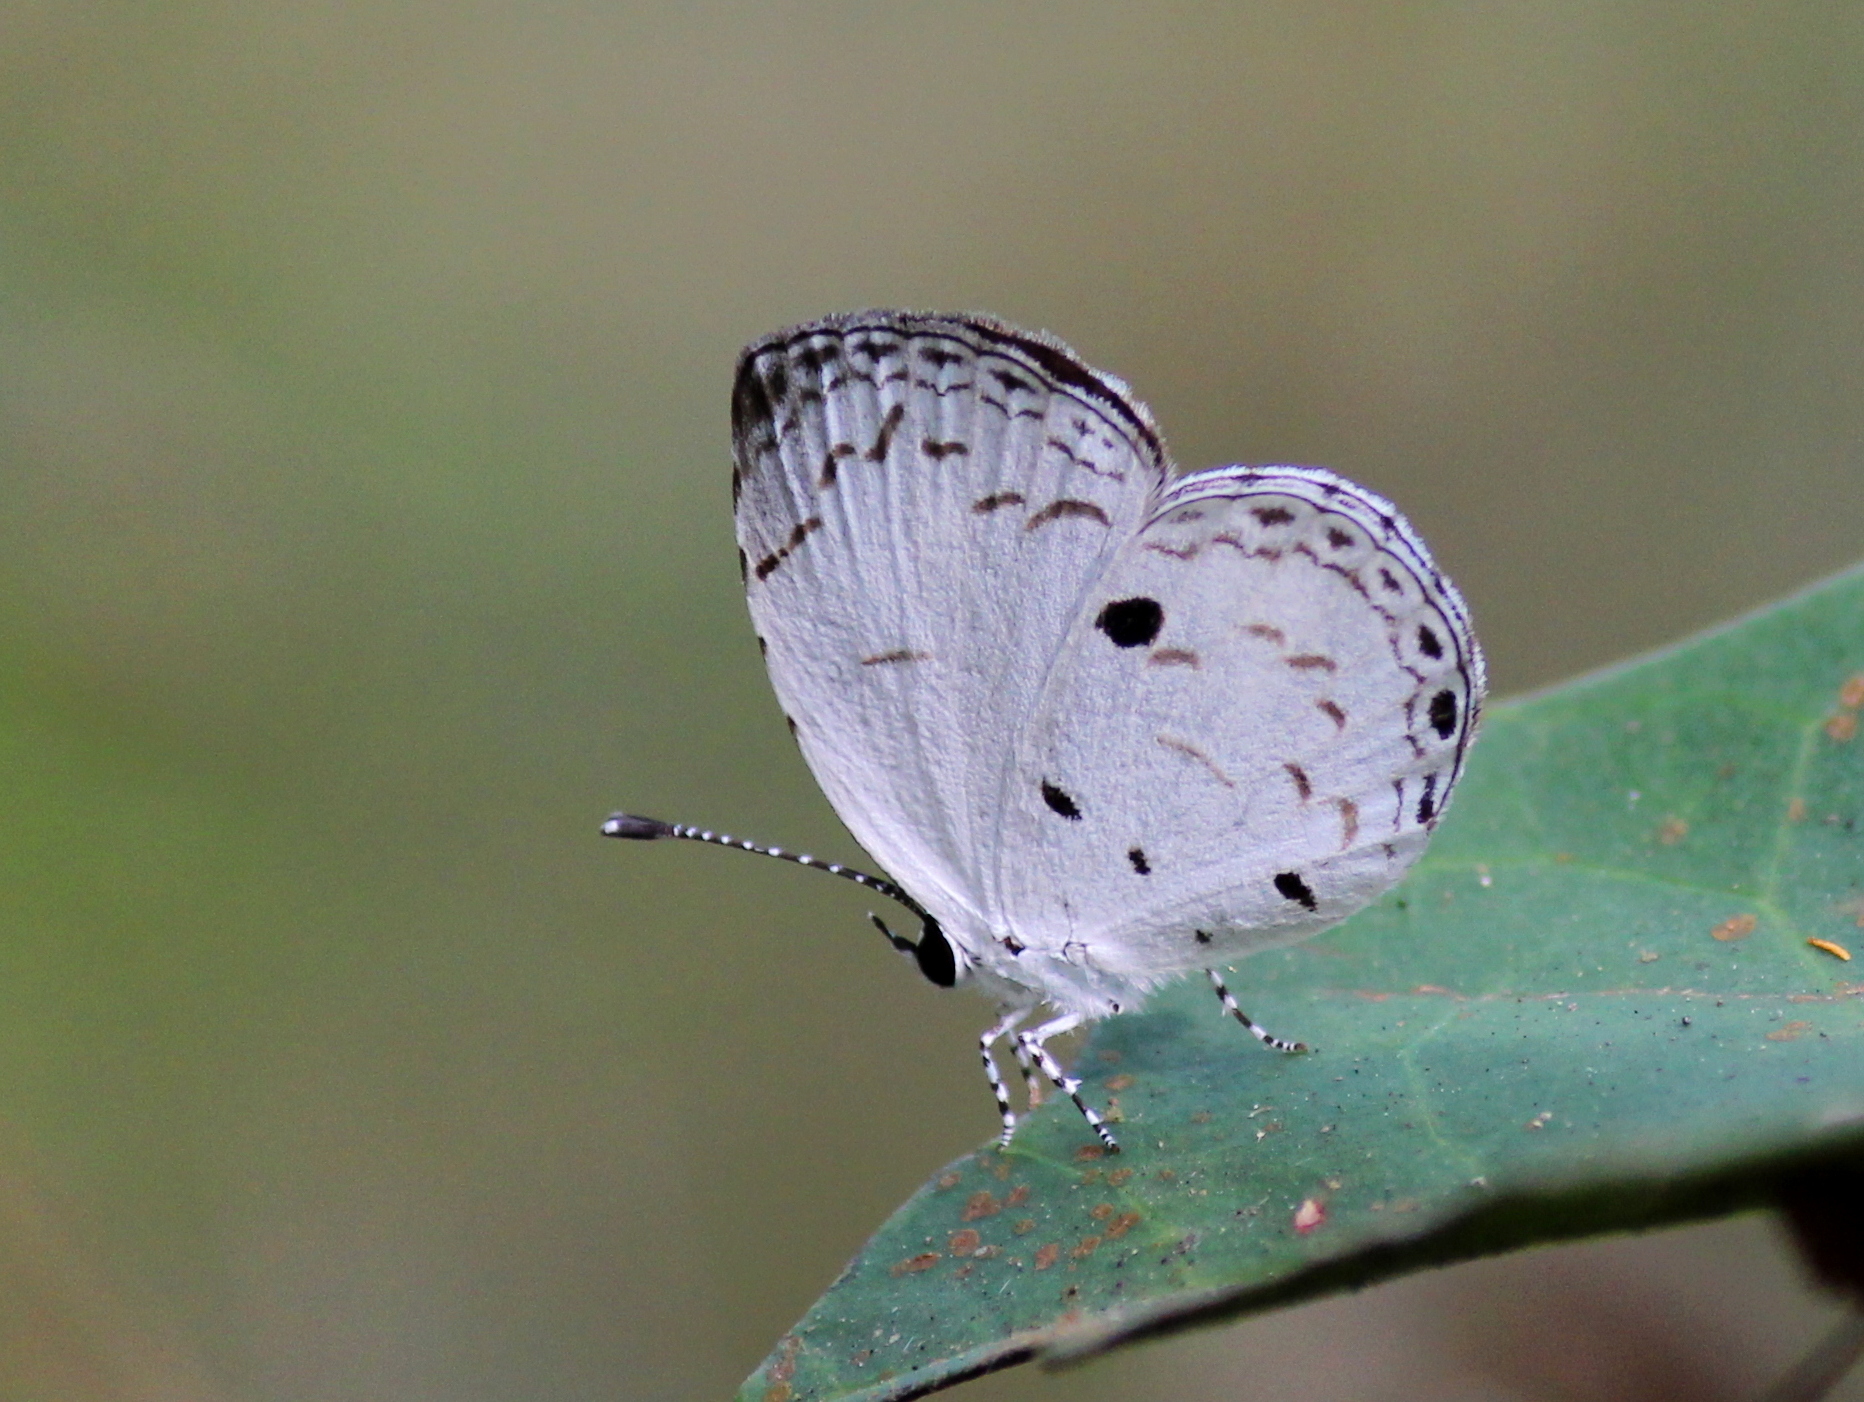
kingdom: Animalia
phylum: Arthropoda
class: Insecta
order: Lepidoptera
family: Lycaenidae
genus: Neopithecops
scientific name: Neopithecops zalmora
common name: Quaker
